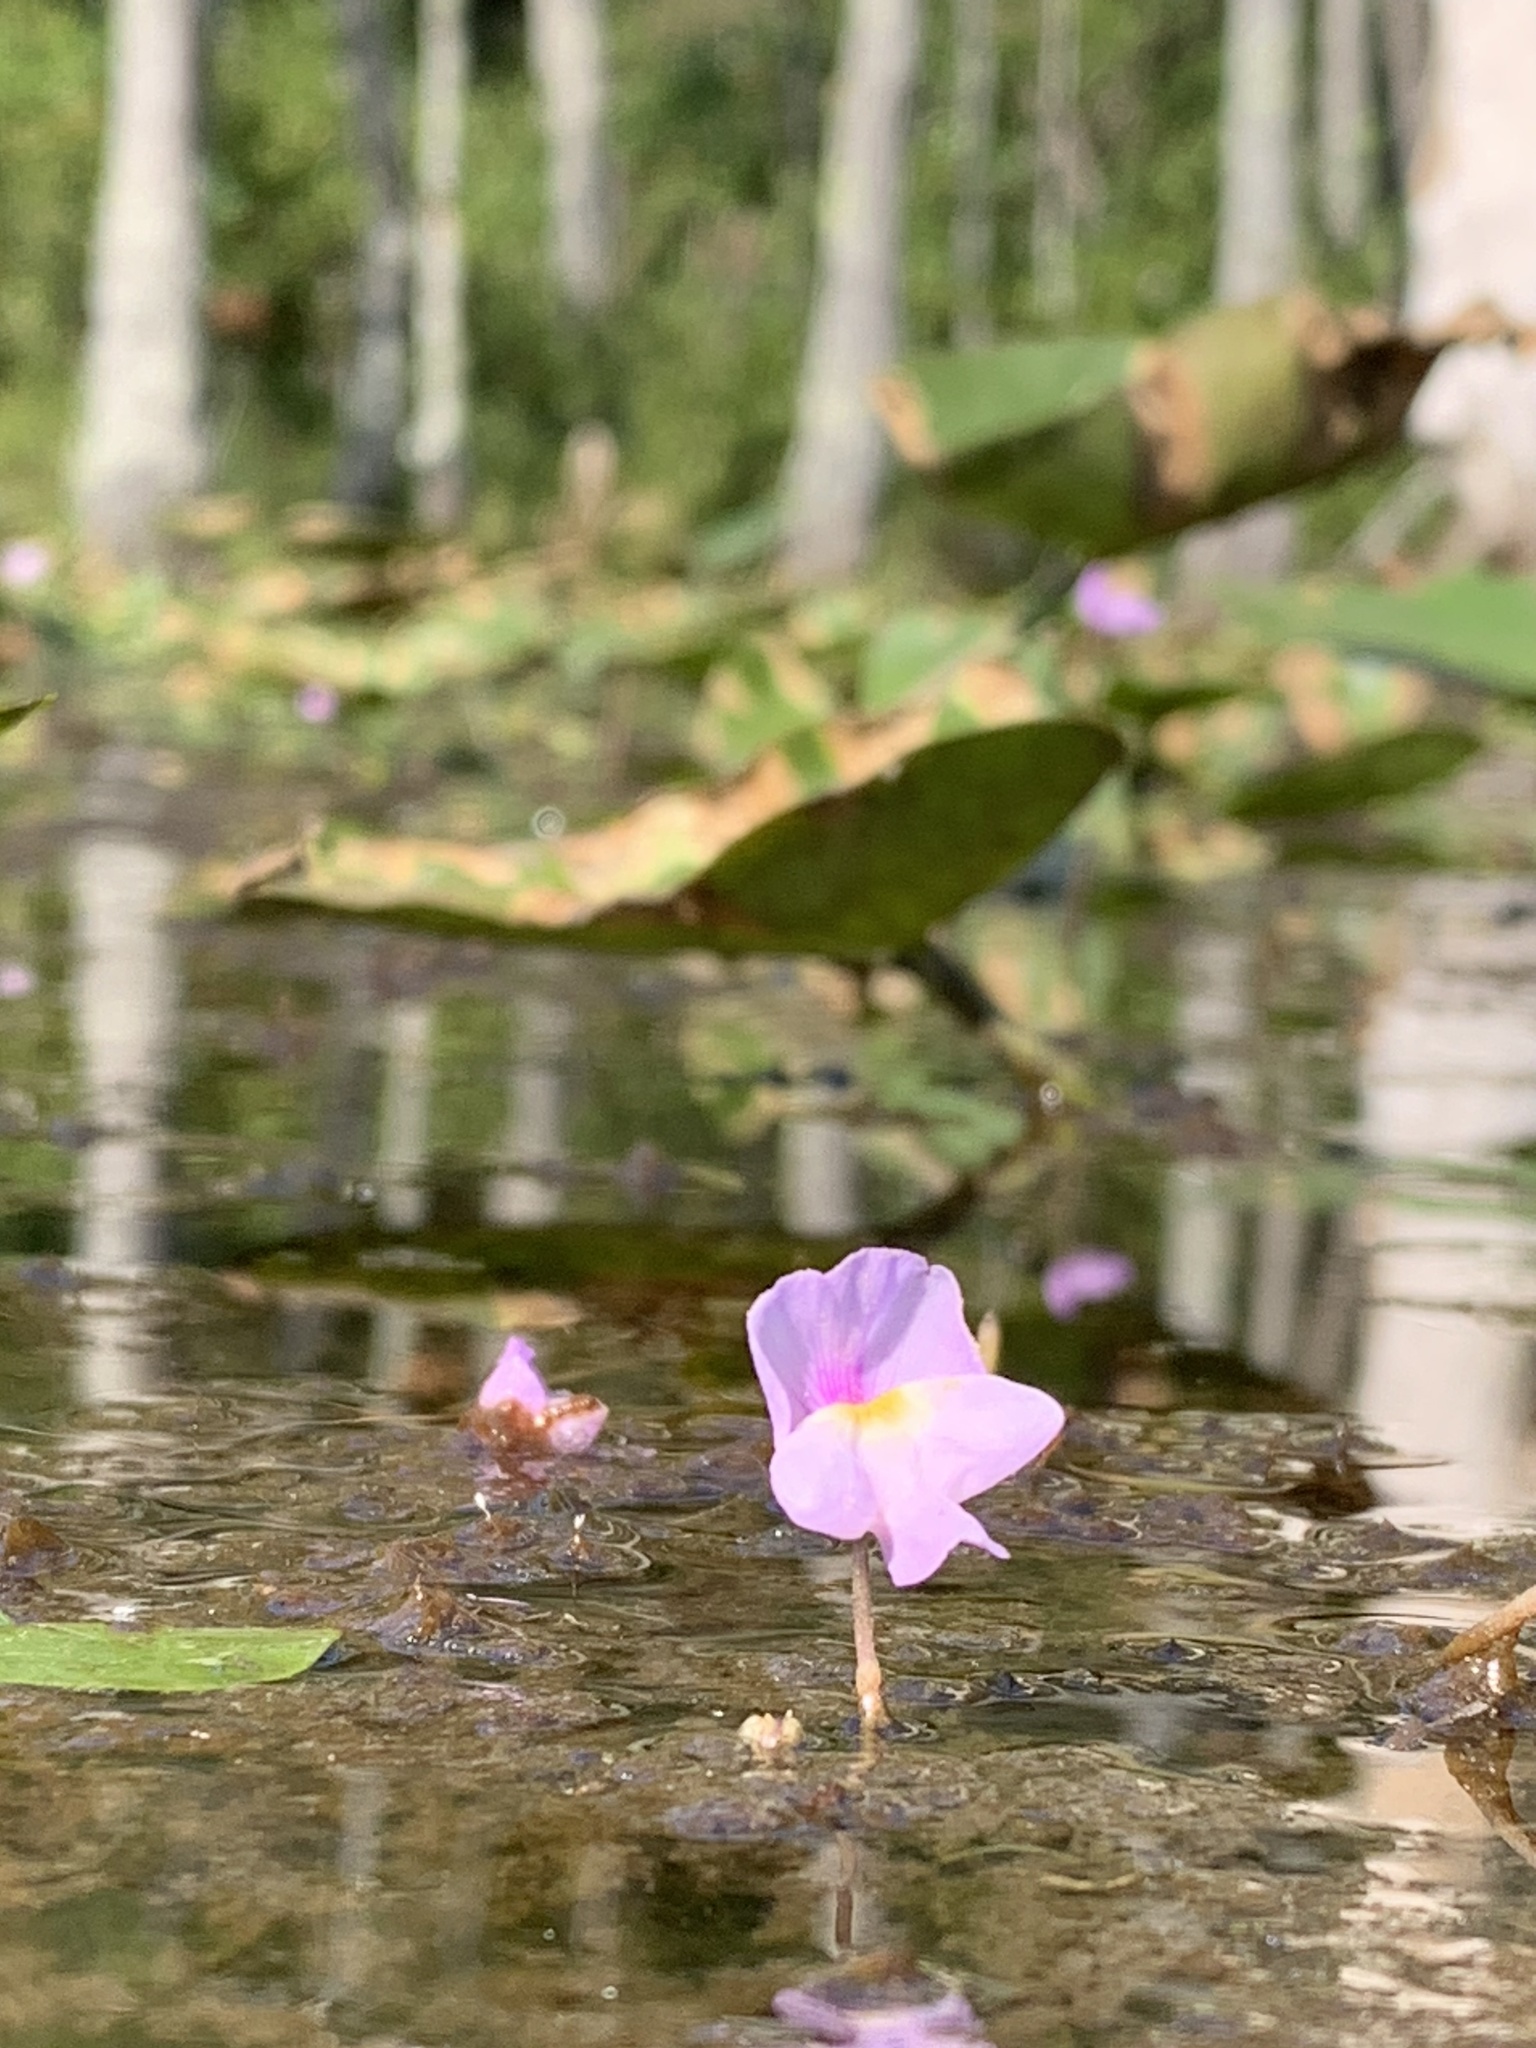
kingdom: Plantae
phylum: Tracheophyta
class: Magnoliopsida
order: Lamiales
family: Lentibulariaceae
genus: Utricularia
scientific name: Utricularia purpurea
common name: Eastern purple bladderwort
